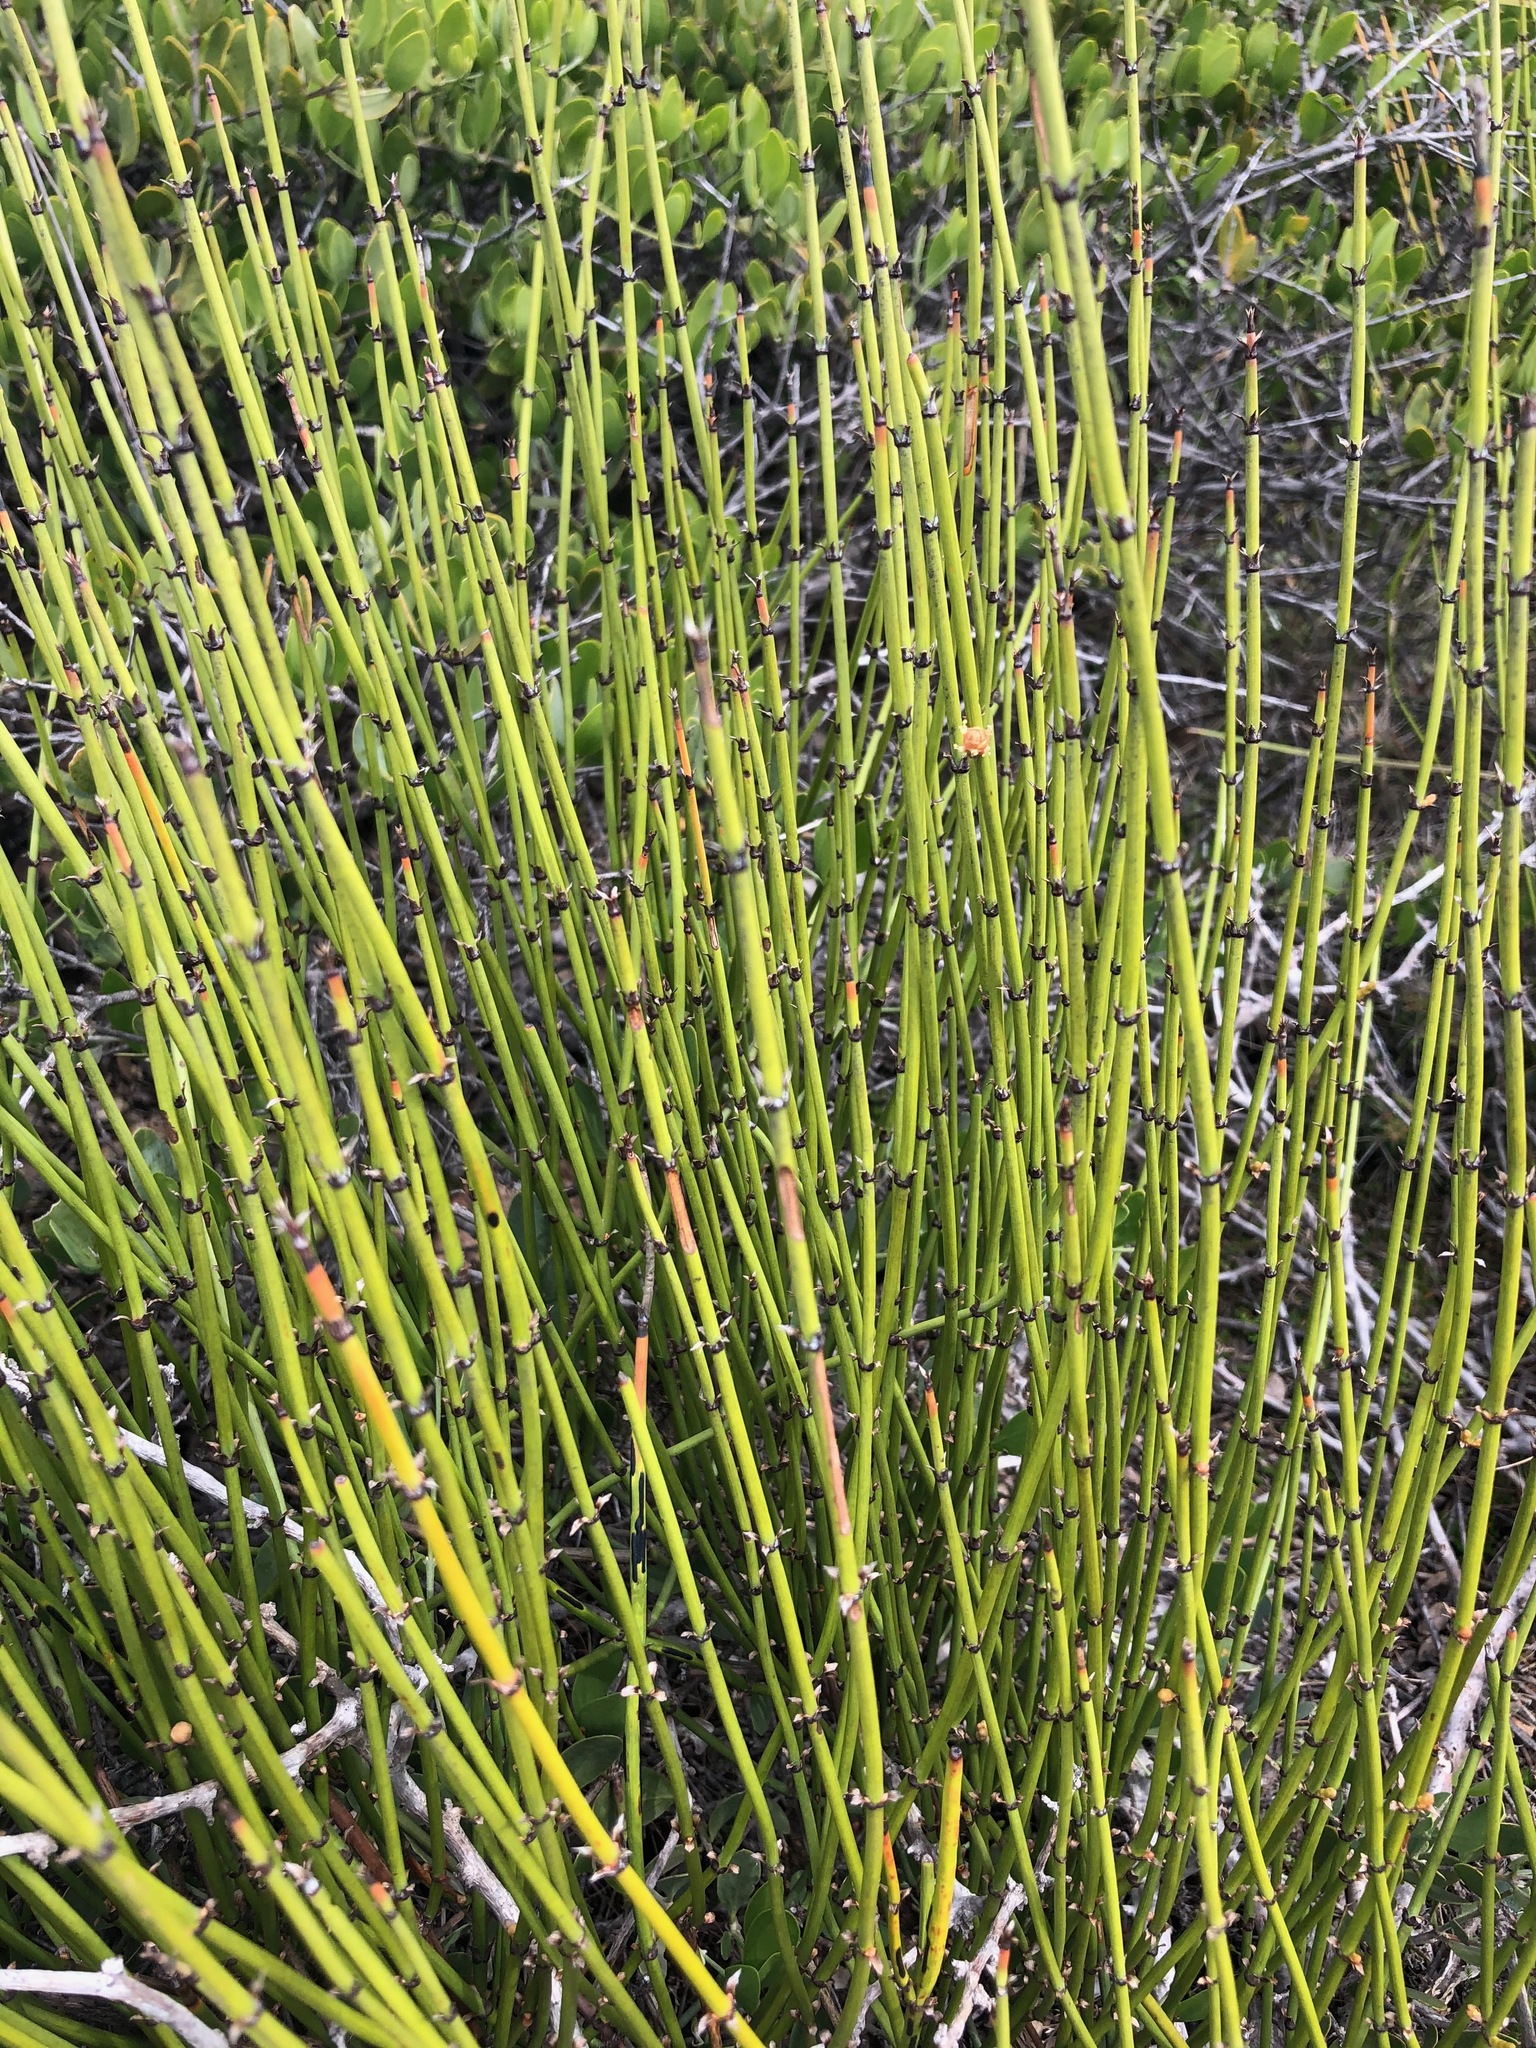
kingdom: Plantae
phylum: Tracheophyta
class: Gnetopsida
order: Ephedrales
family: Ephedraceae
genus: Ephedra
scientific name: Ephedra californica
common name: California ephedra
